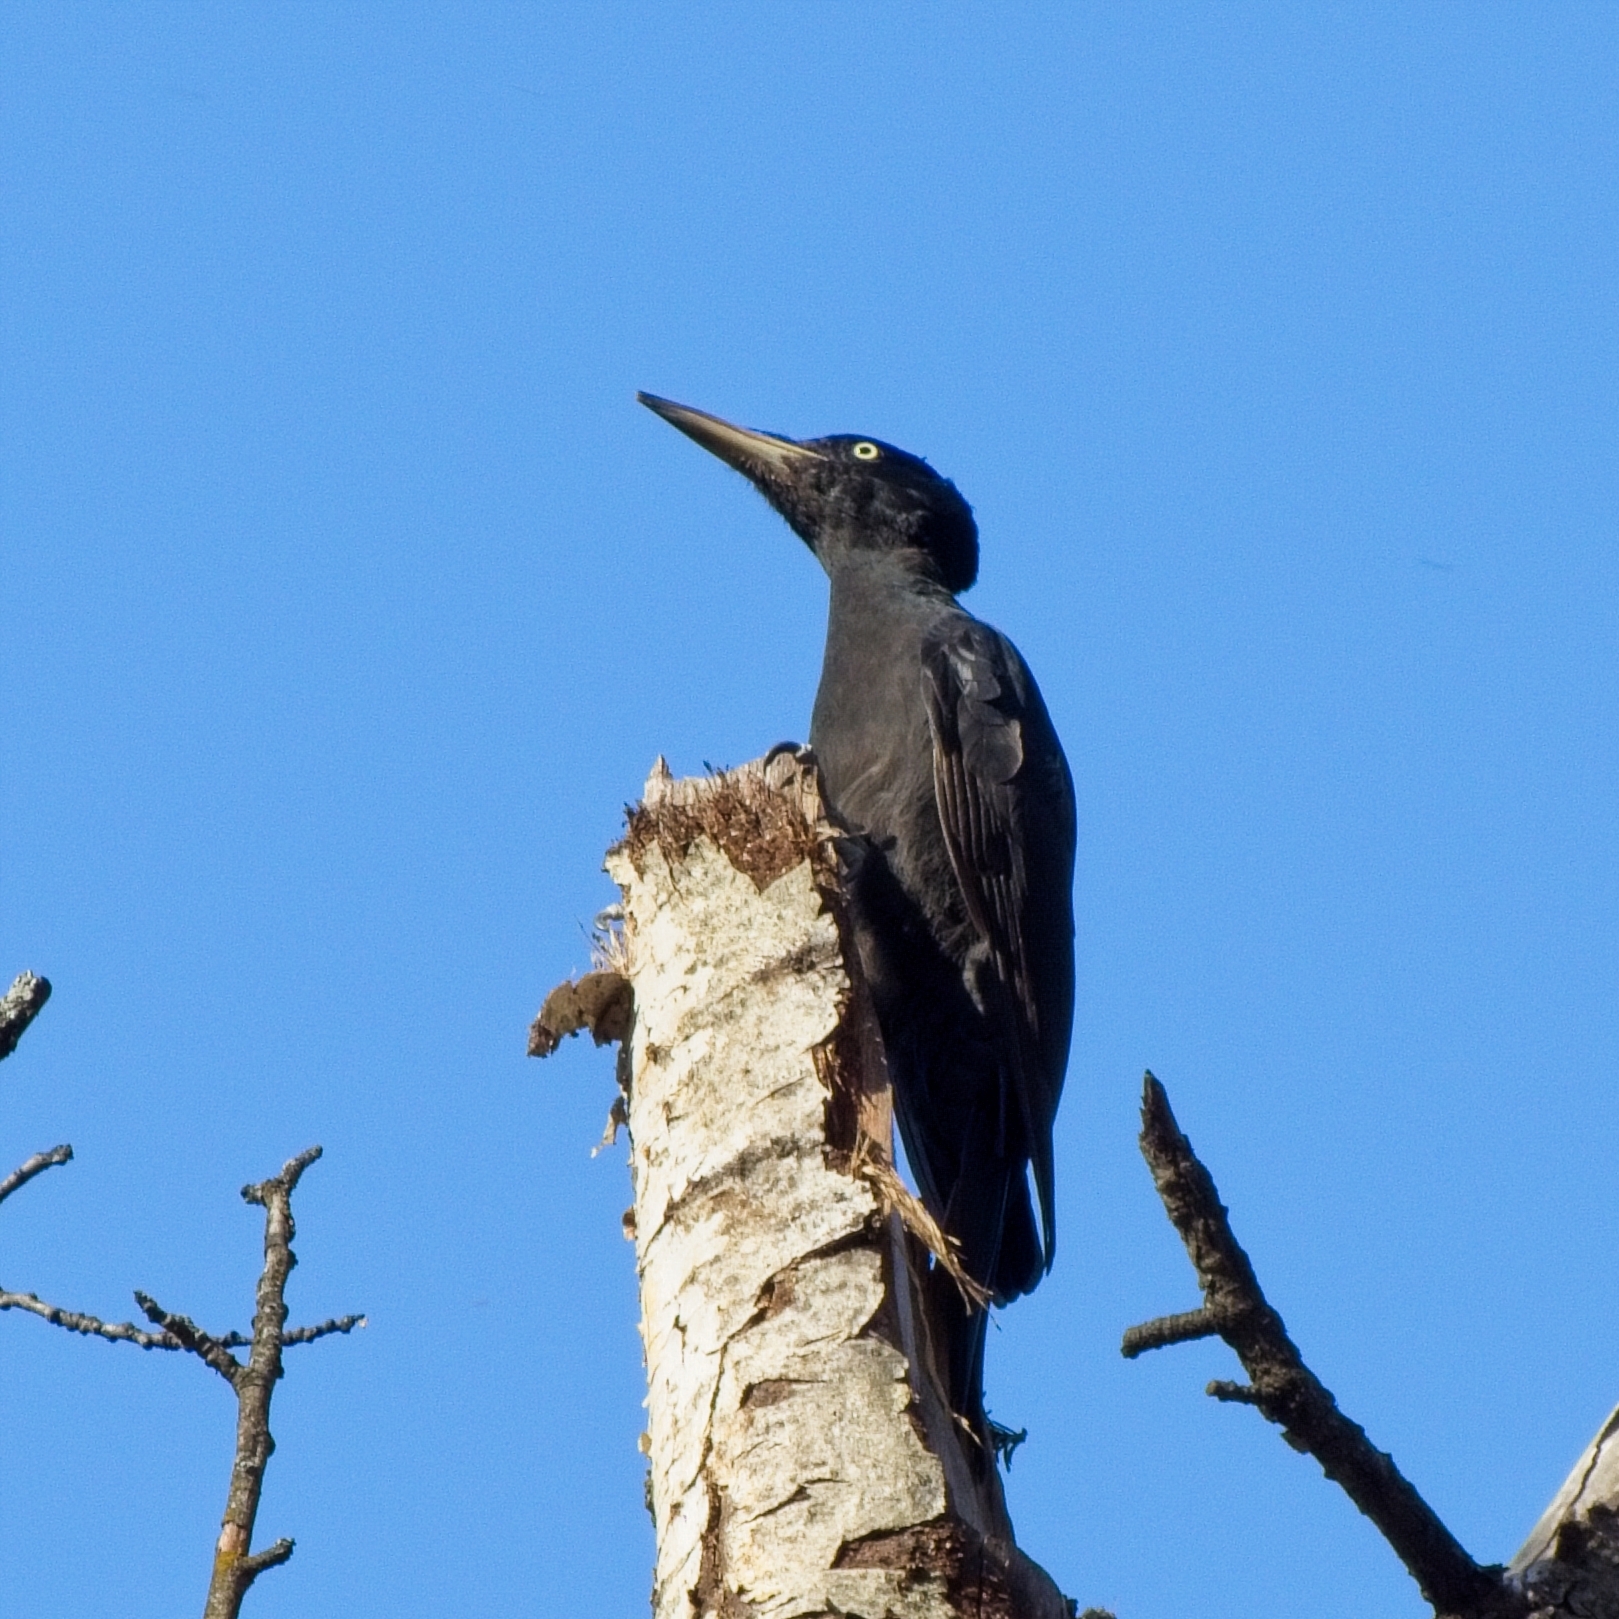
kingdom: Animalia
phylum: Chordata
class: Aves
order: Piciformes
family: Picidae
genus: Dryocopus
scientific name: Dryocopus martius
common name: Black woodpecker
